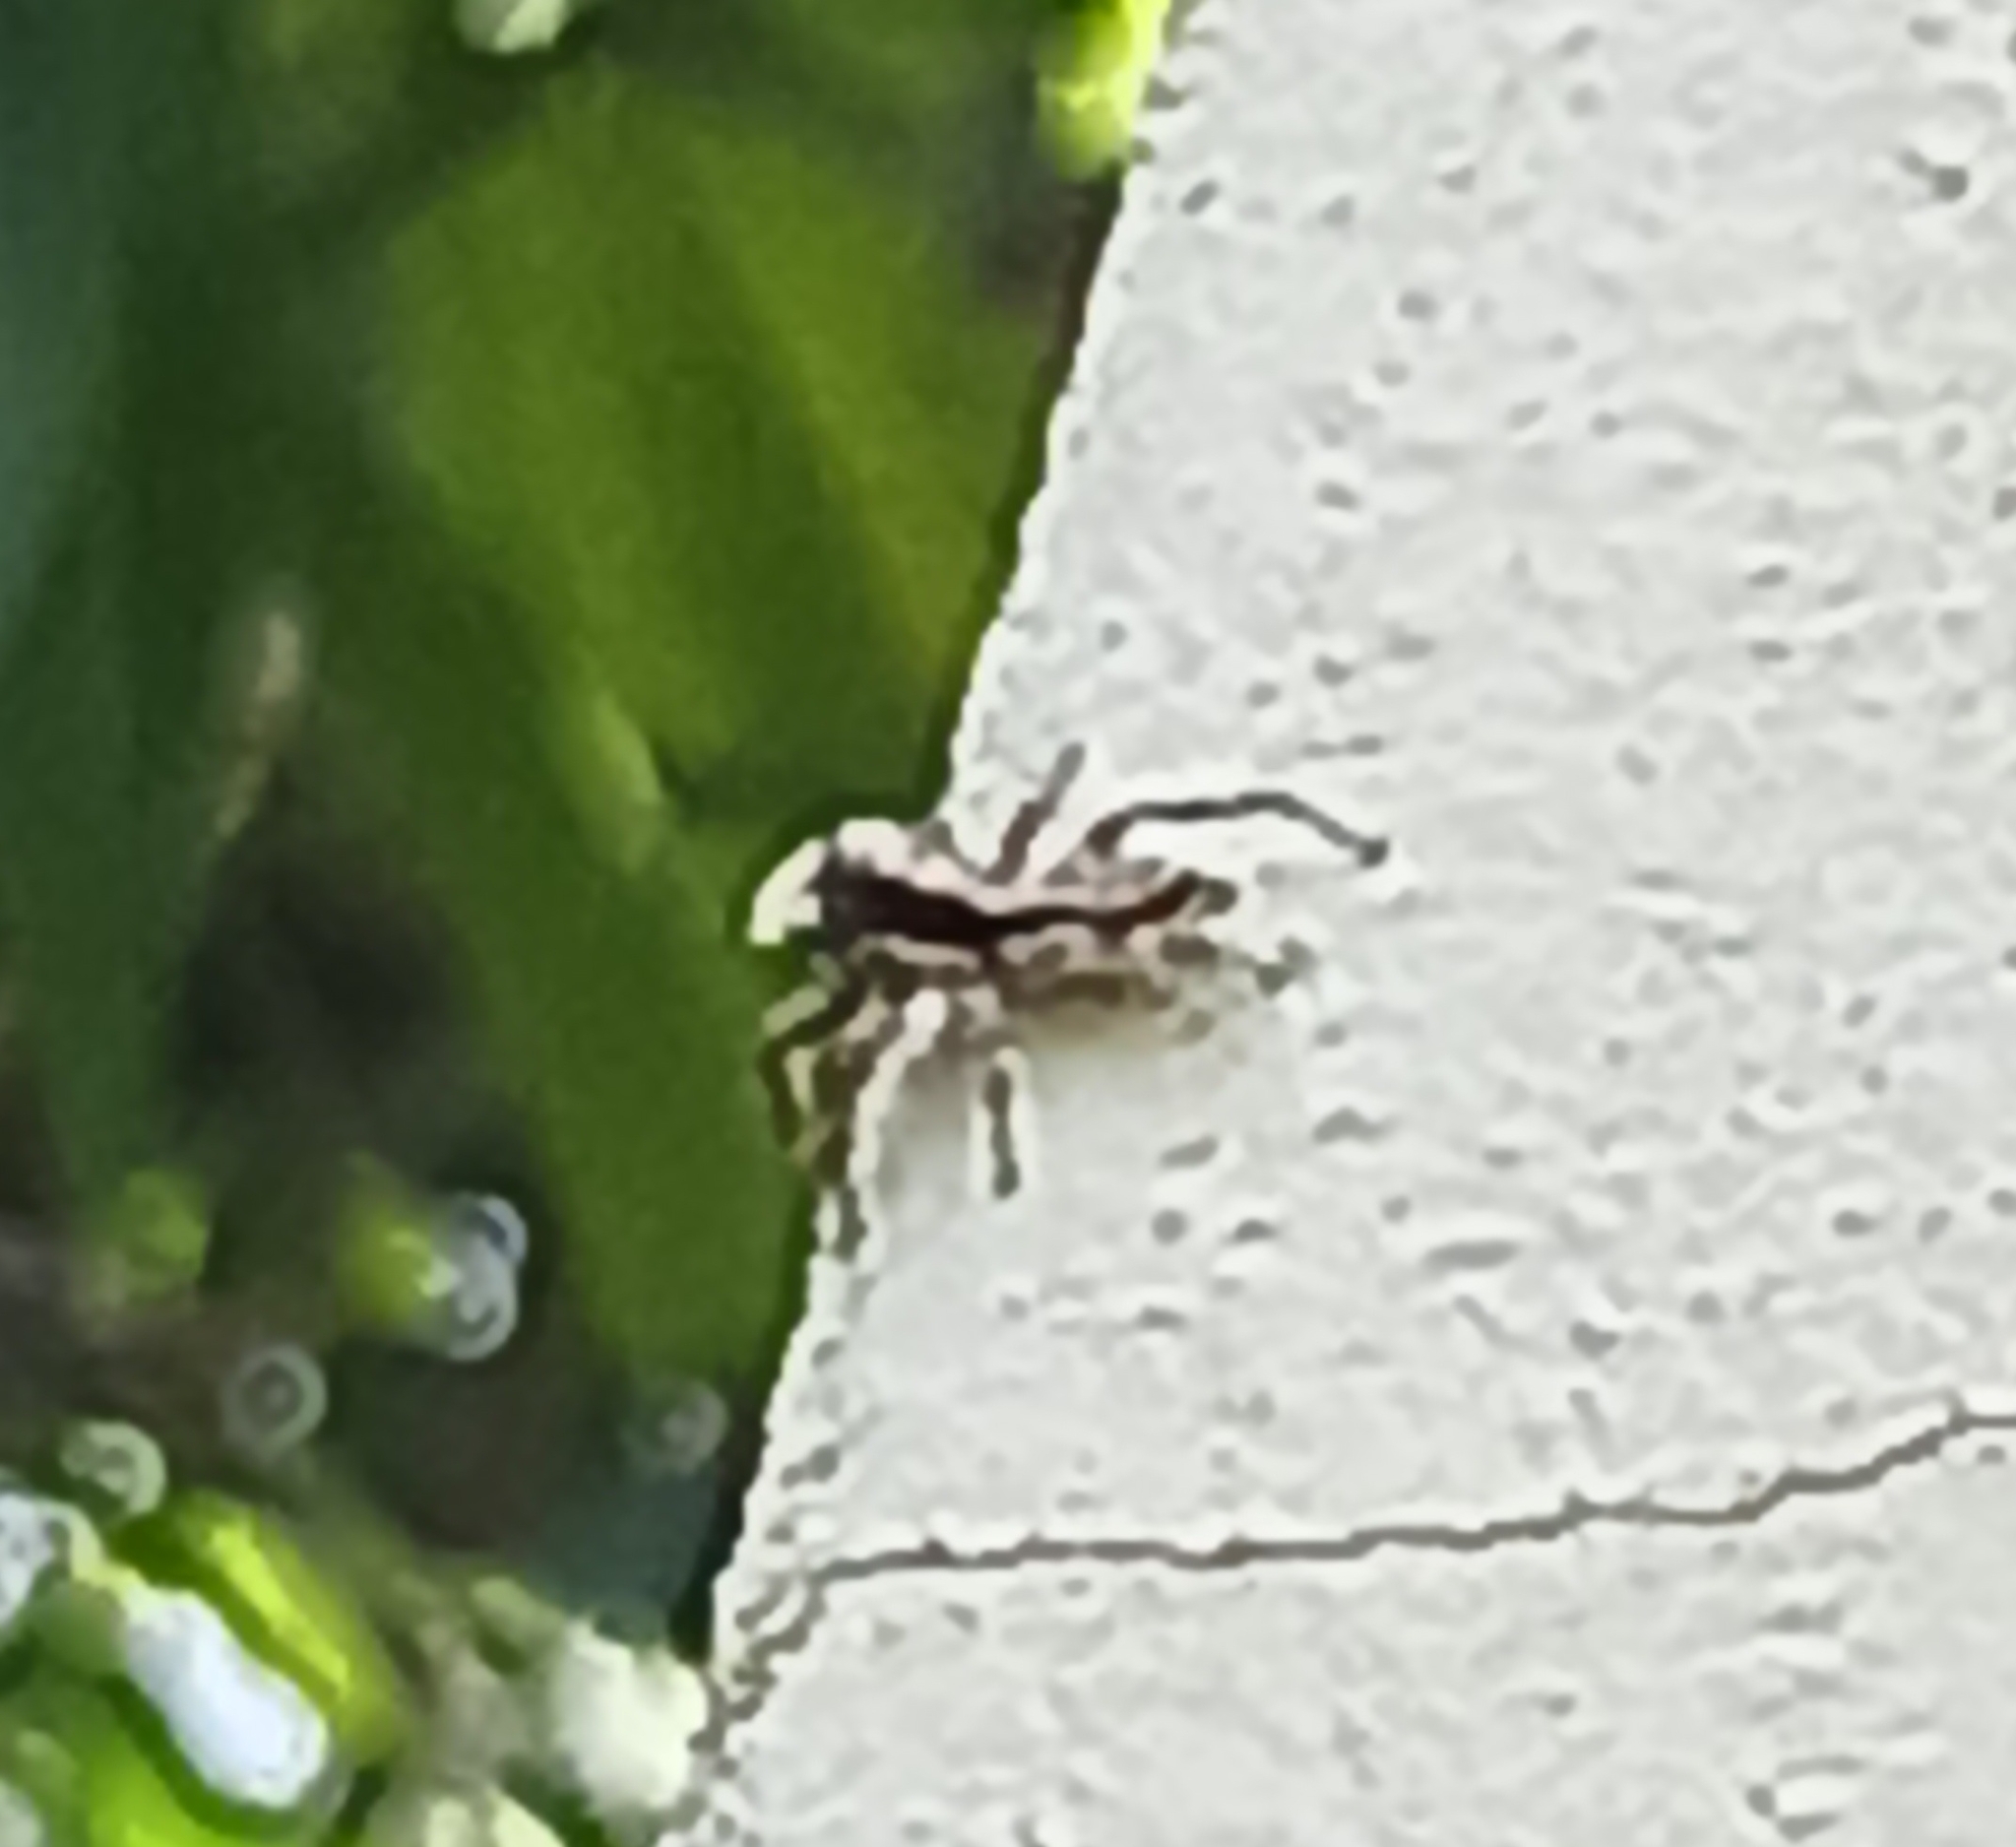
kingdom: Animalia
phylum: Arthropoda
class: Arachnida
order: Araneae
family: Salticidae
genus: Menemerus
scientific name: Menemerus bivittatus
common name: Gray wall jumper
